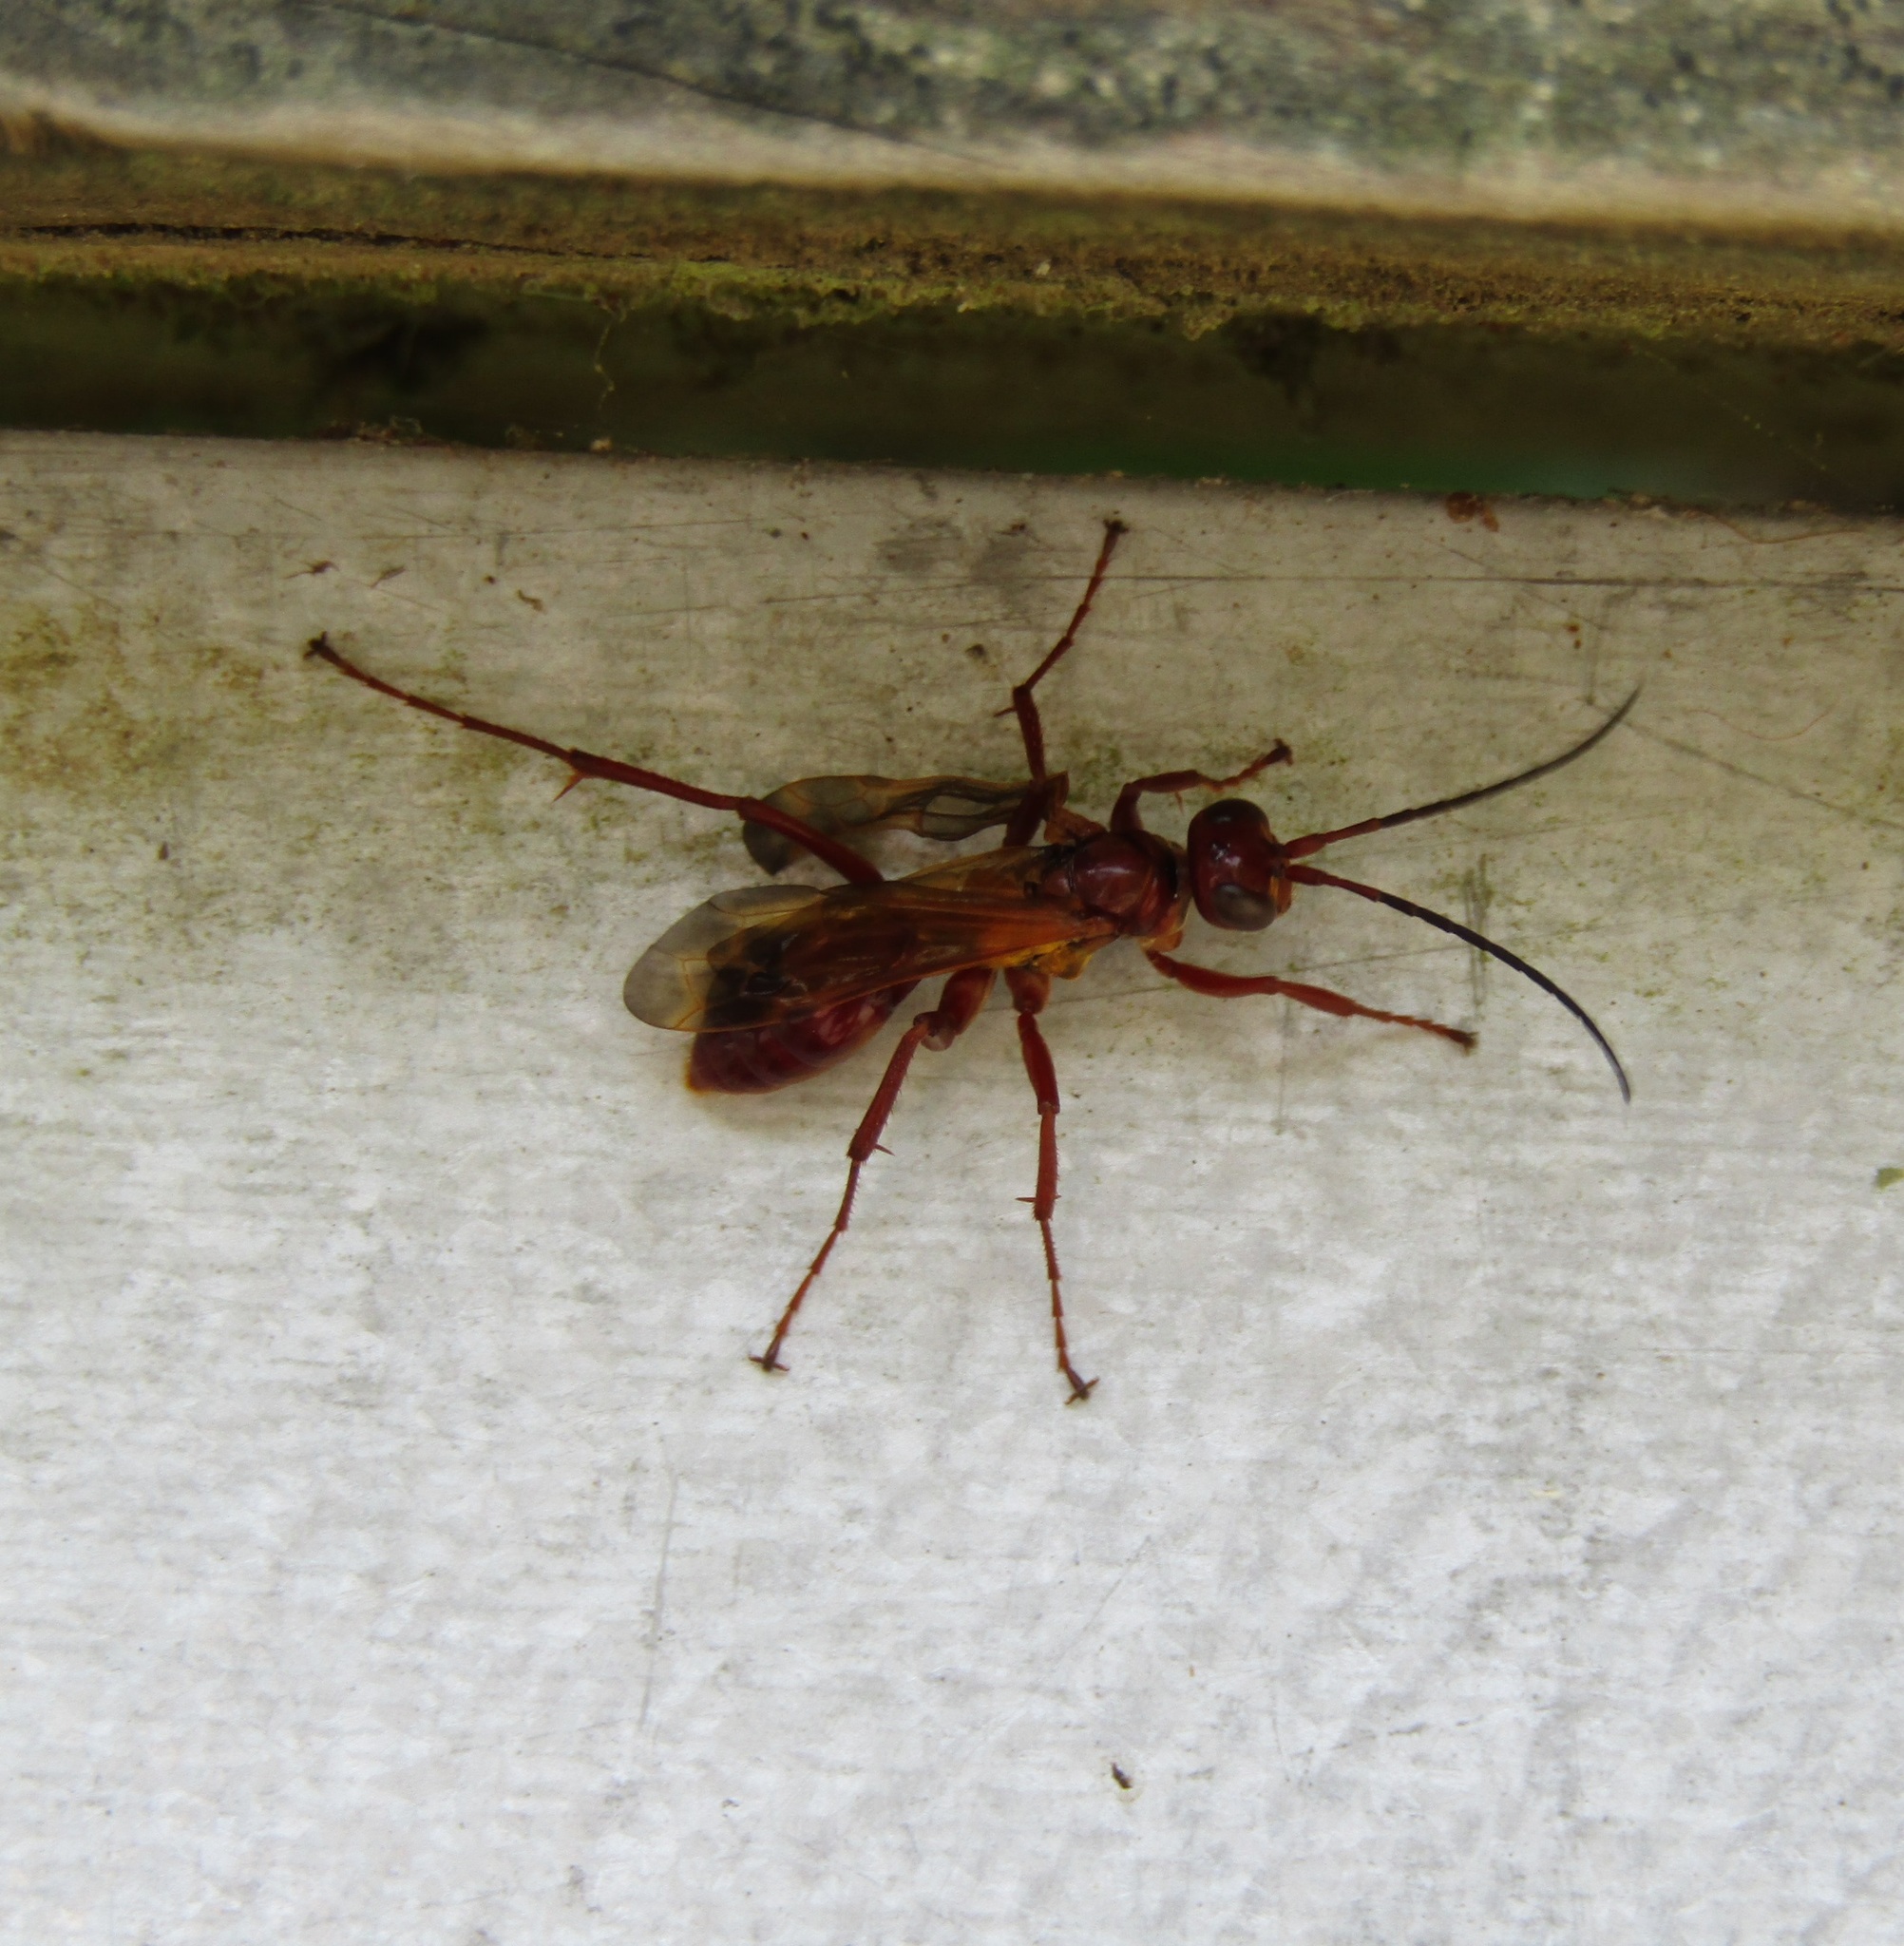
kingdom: Animalia
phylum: Arthropoda
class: Insecta
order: Hymenoptera
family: Pompilidae
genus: Sphictostethus
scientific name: Sphictostethus nitidus
